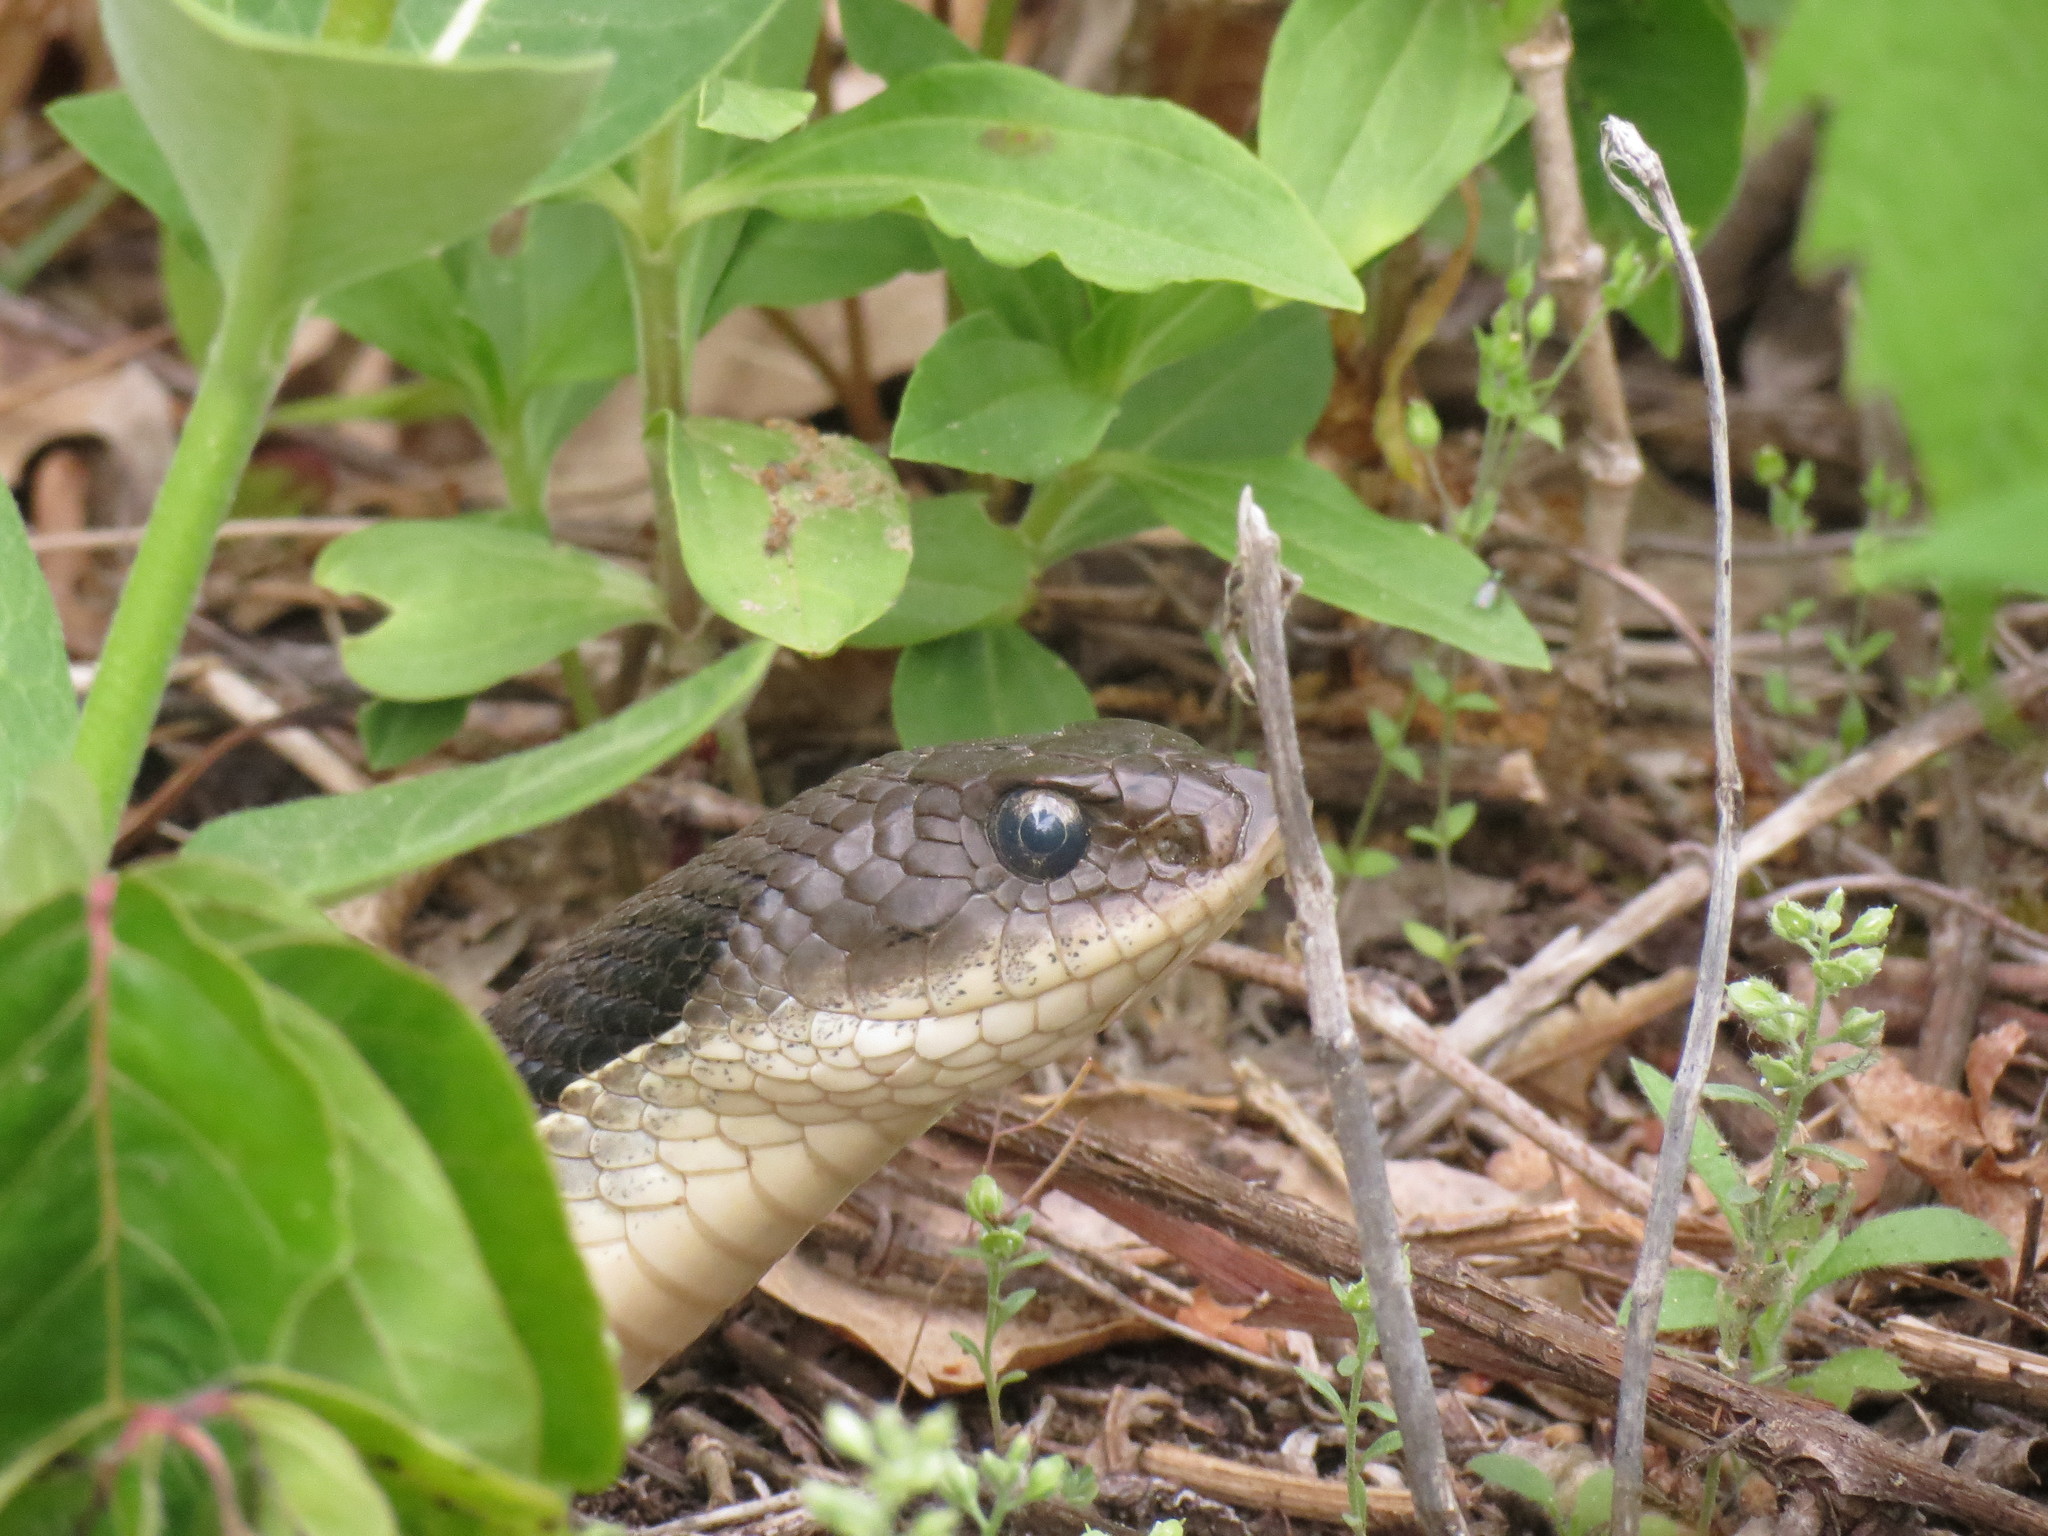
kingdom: Animalia
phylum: Chordata
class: Squamata
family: Colubridae
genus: Heterodon
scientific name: Heterodon platirhinos
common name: Eastern hognose snake
